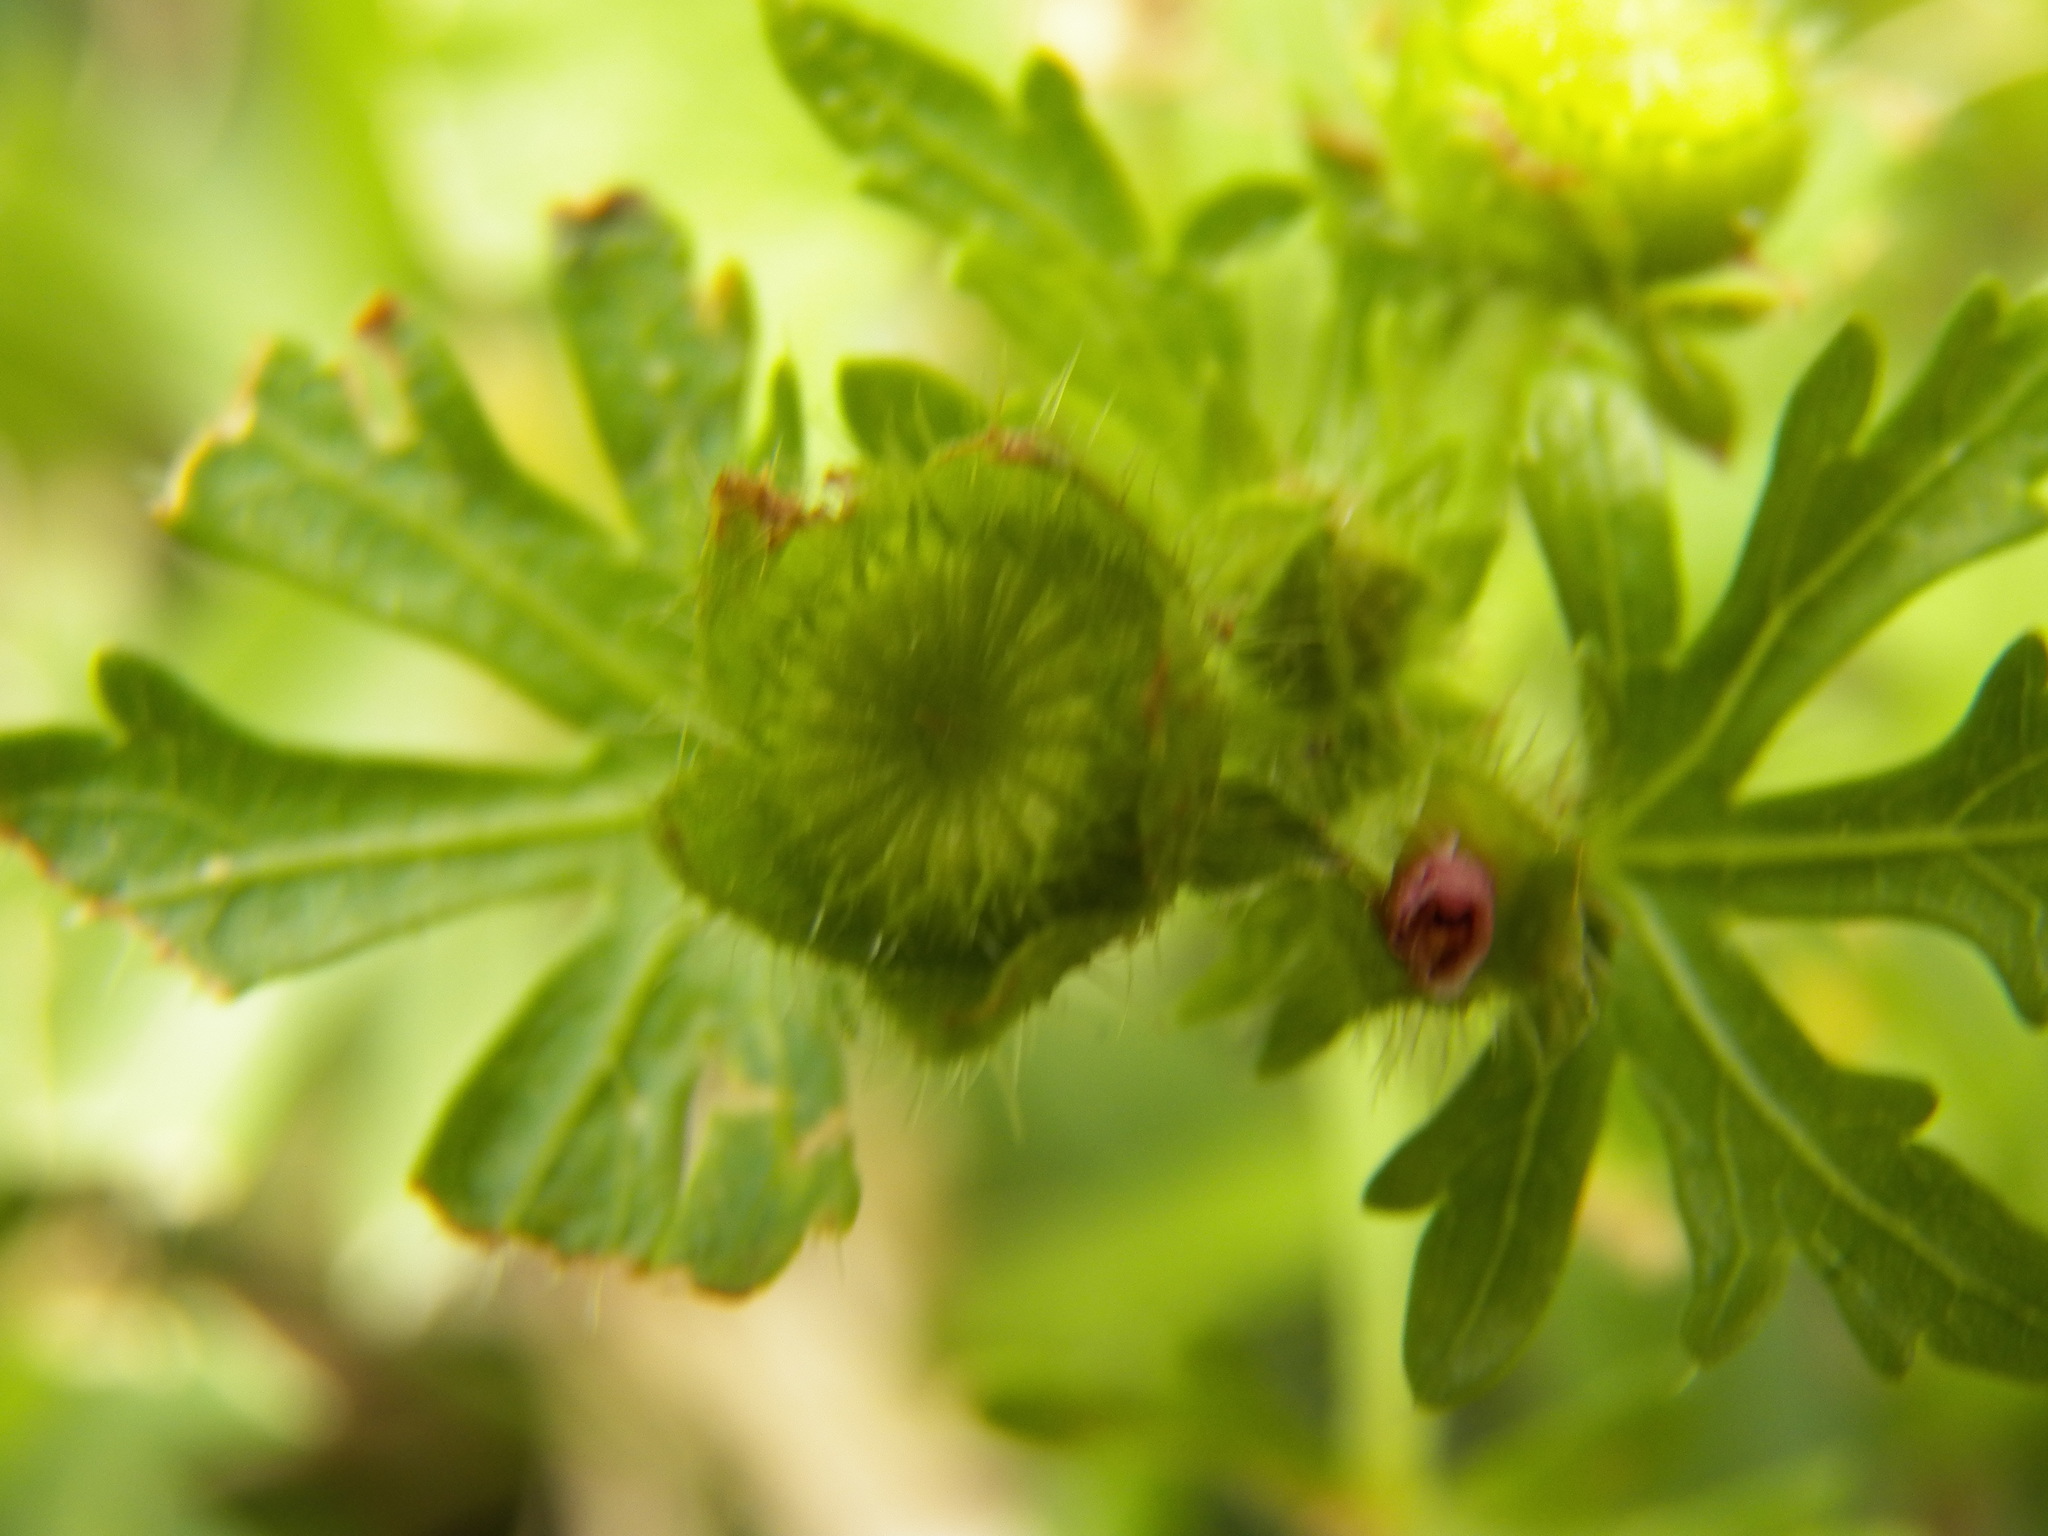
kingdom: Plantae
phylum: Tracheophyta
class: Magnoliopsida
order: Malvales
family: Malvaceae
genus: Modiola
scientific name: Modiola caroliniana
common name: Carolina bristlemallow
